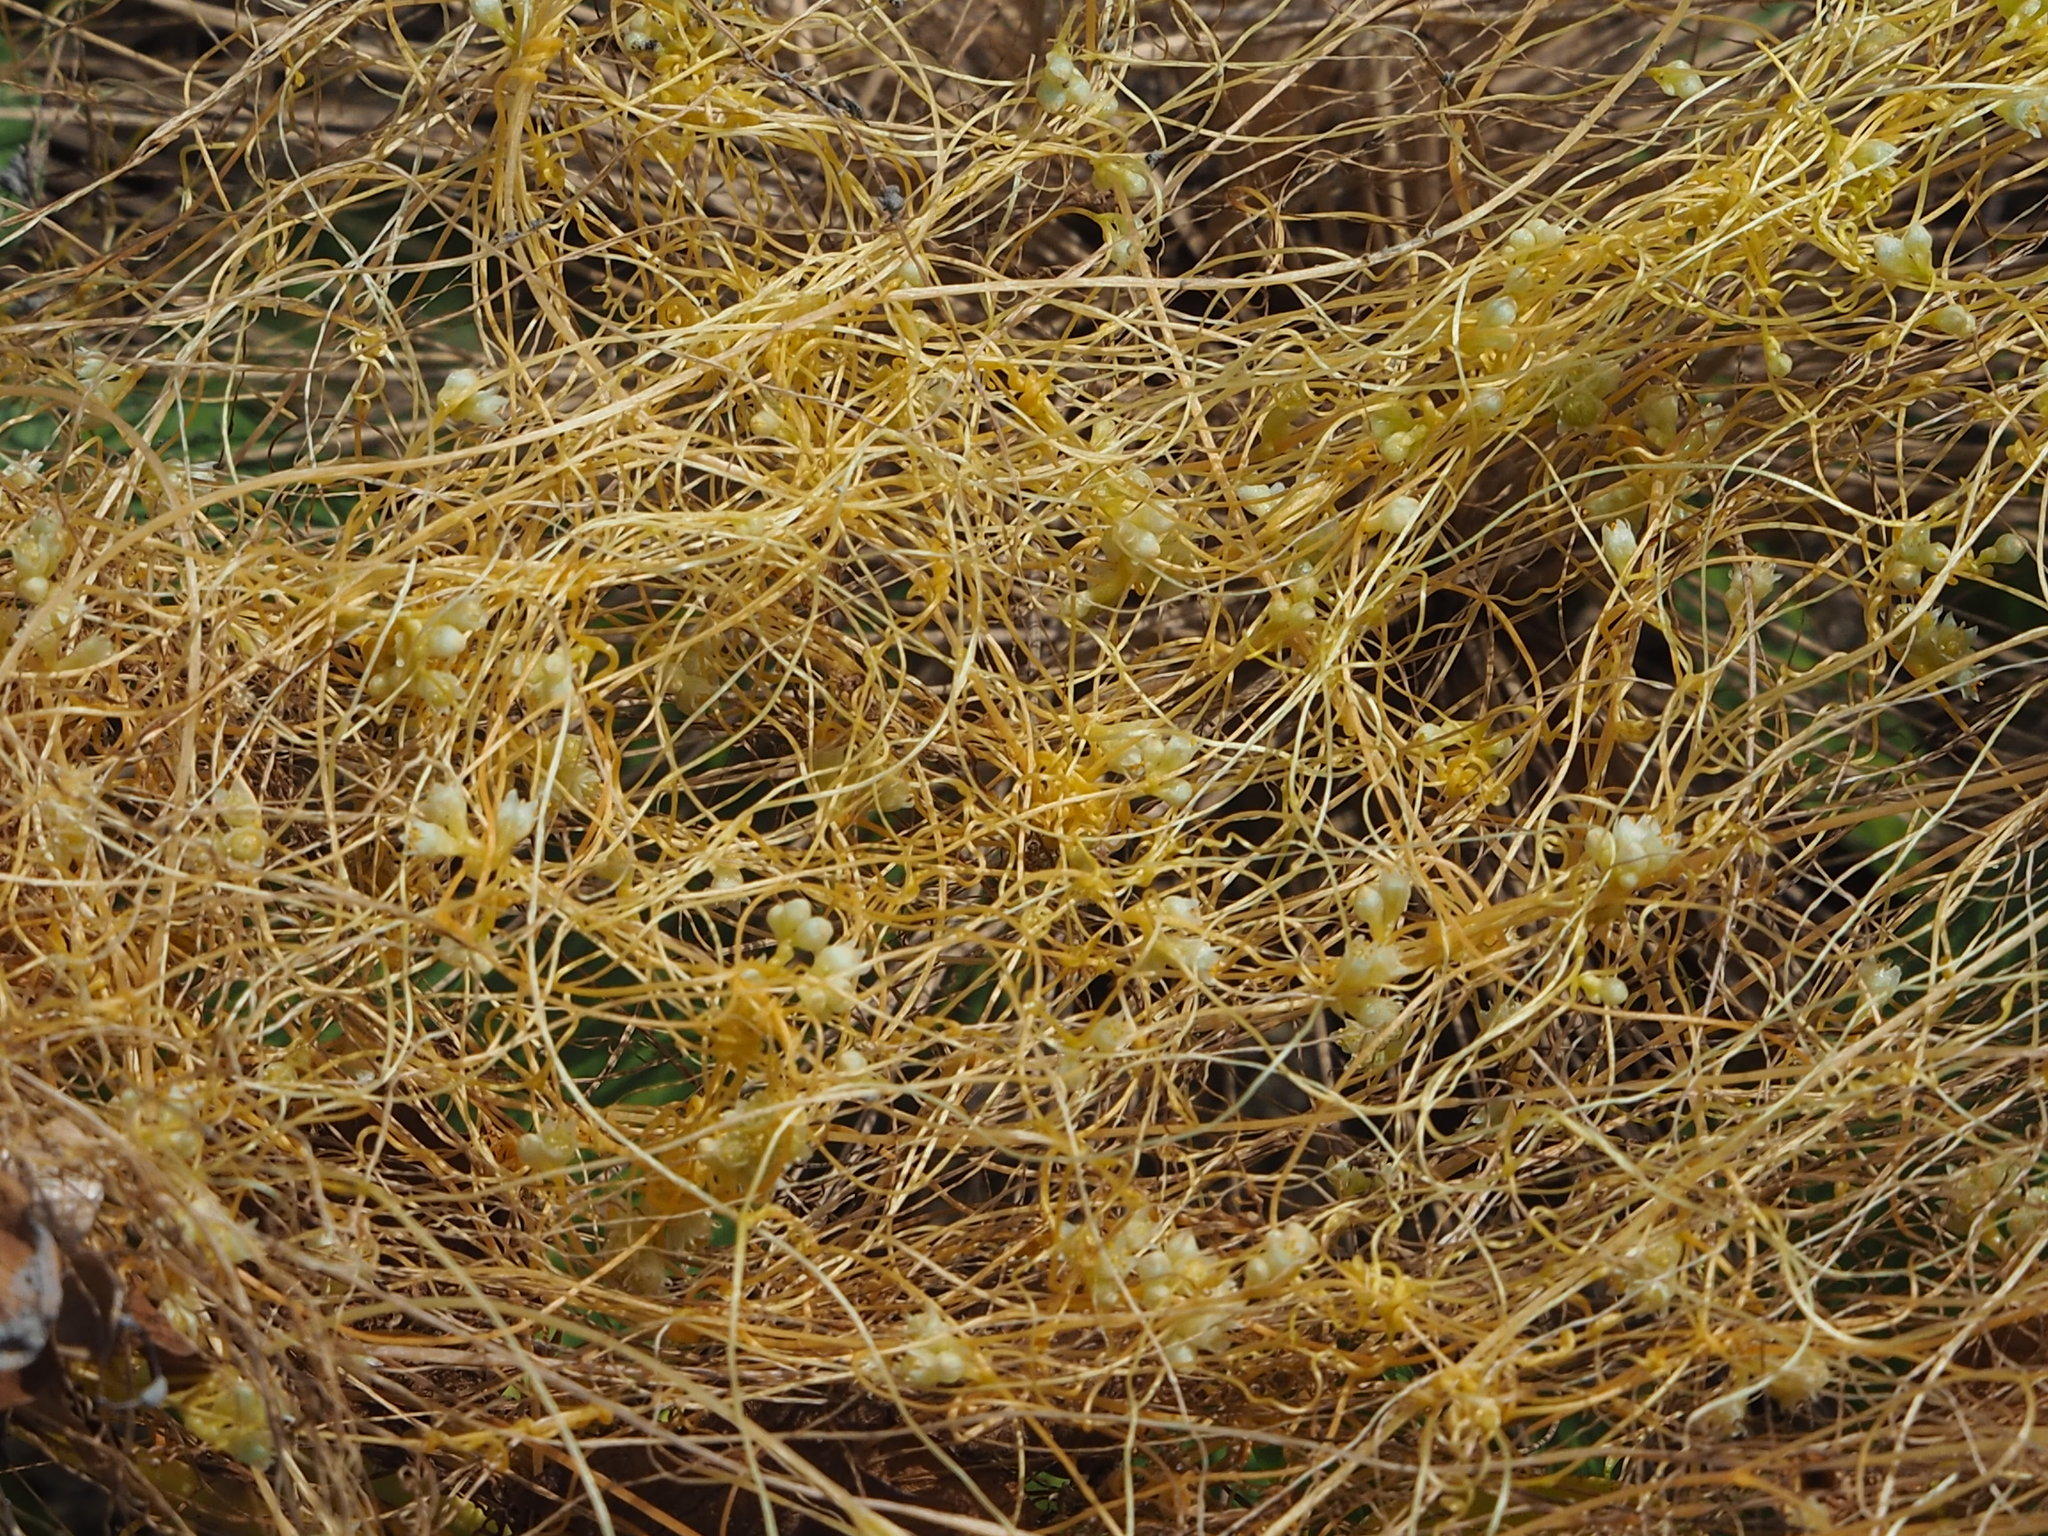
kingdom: Plantae
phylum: Tracheophyta
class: Magnoliopsida
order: Solanales
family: Convolvulaceae
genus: Cuscuta
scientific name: Cuscuta campestris
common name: Yellow dodder
